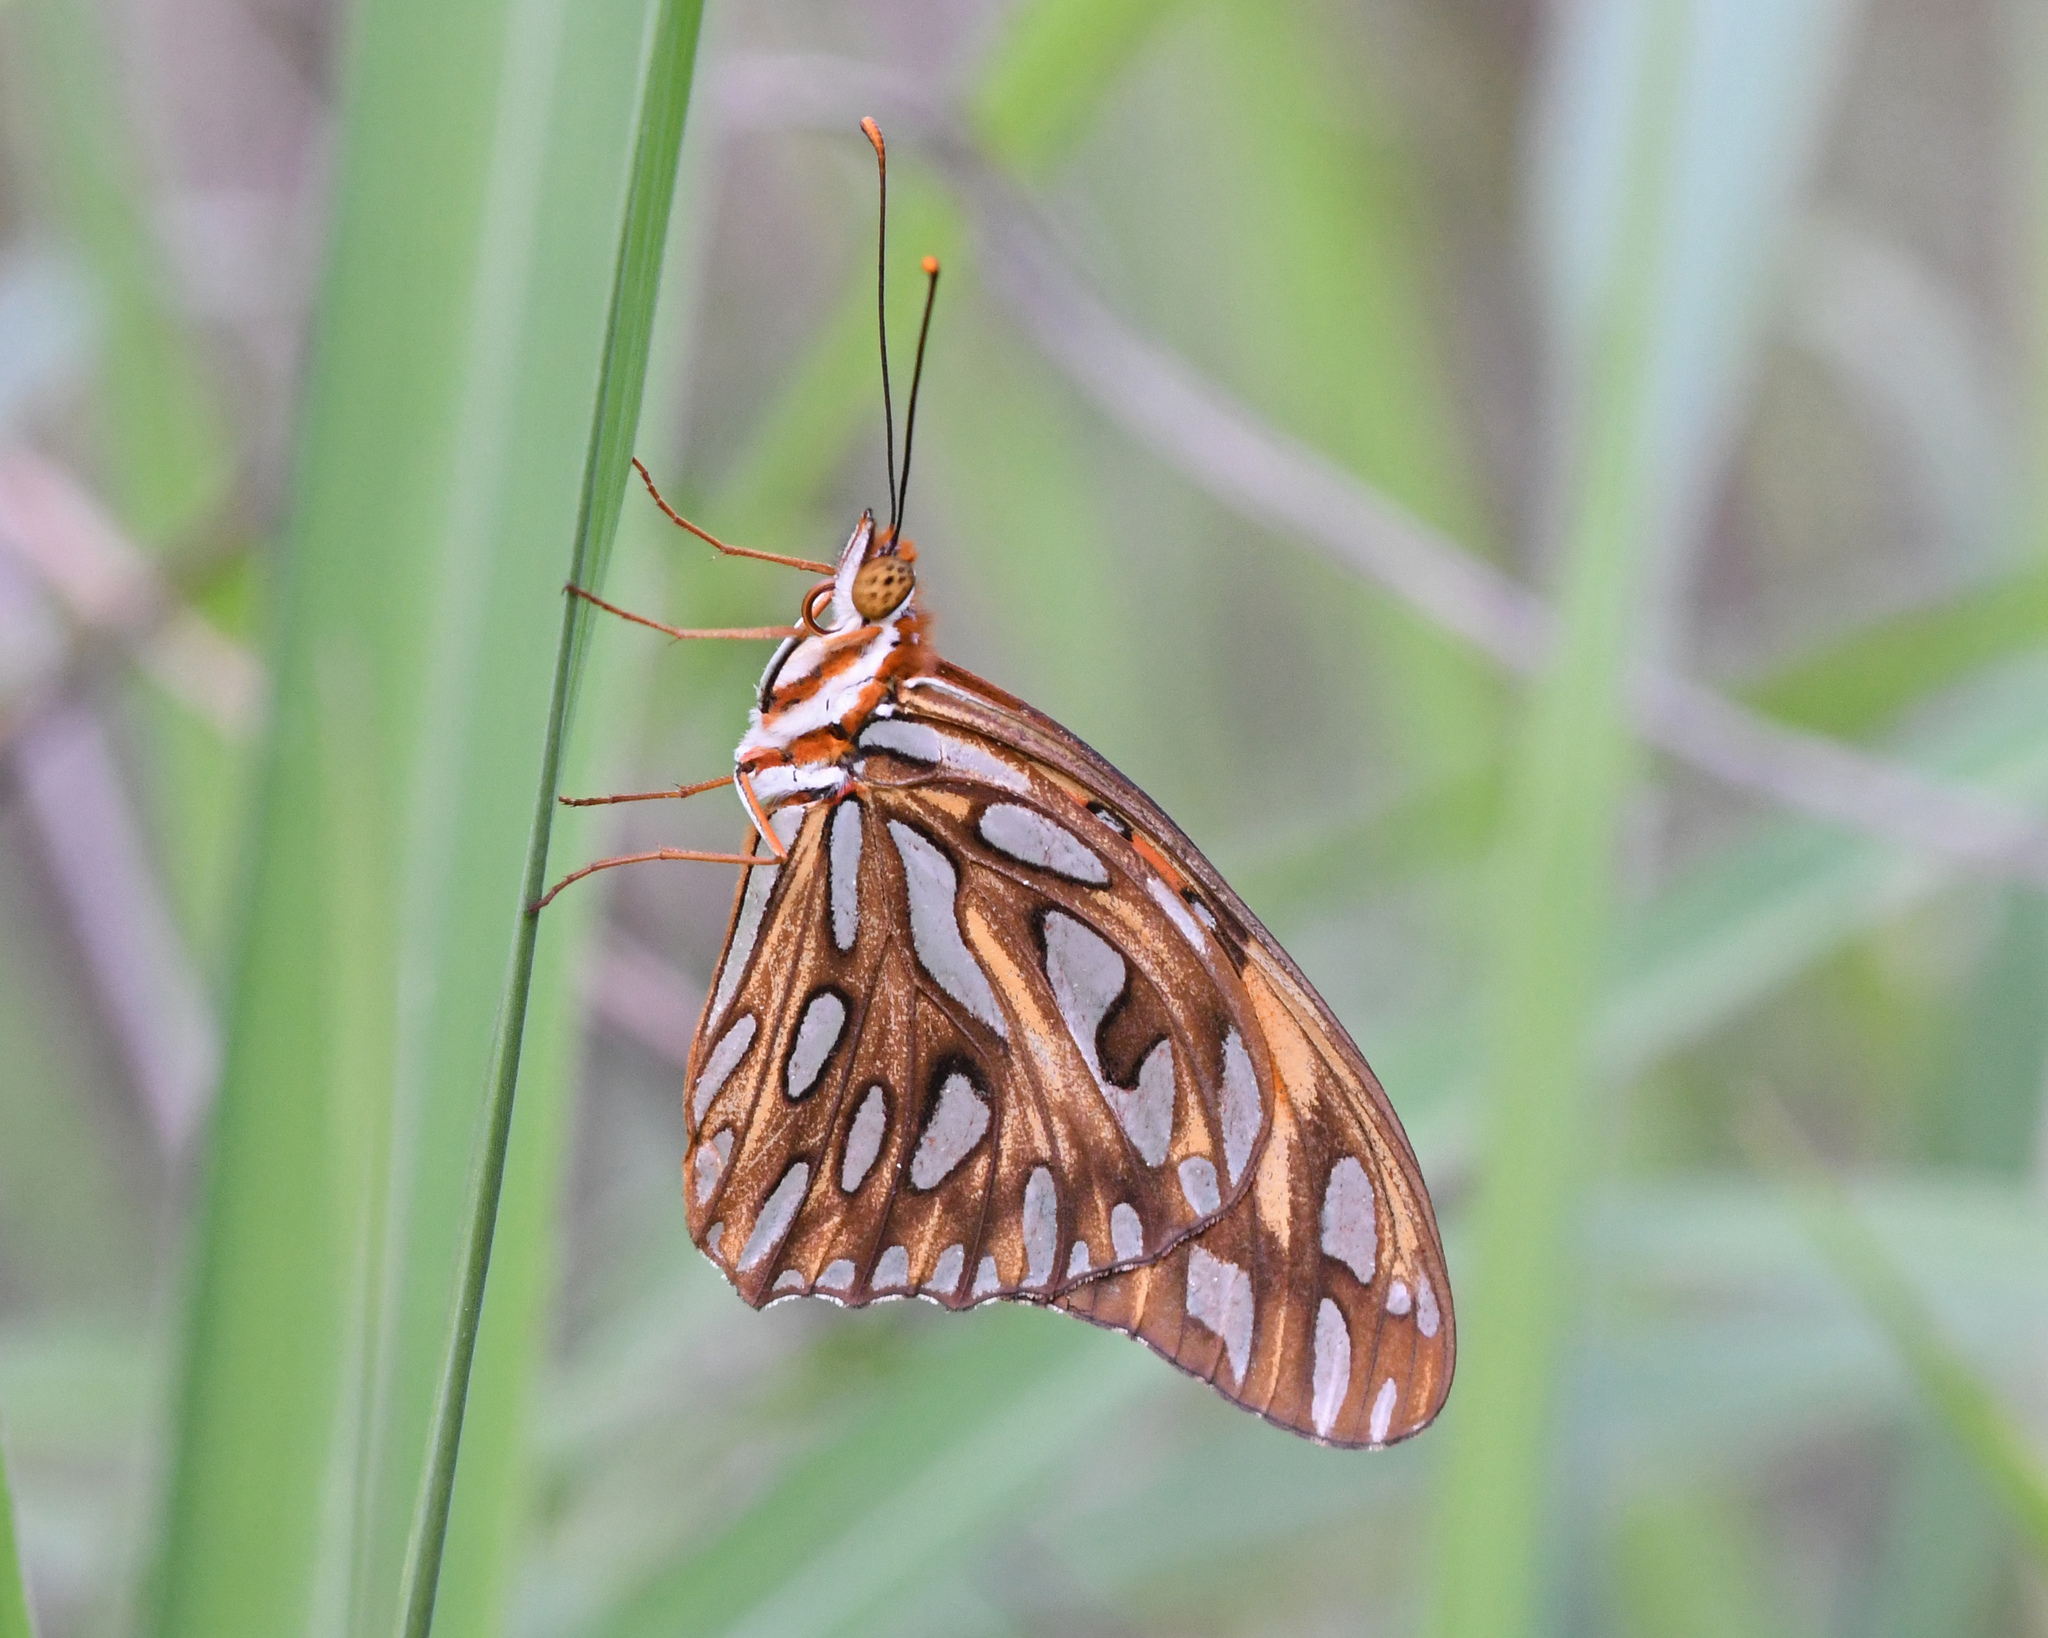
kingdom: Animalia
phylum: Arthropoda
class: Insecta
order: Lepidoptera
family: Nymphalidae
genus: Dione
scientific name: Dione vanillae
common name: Gulf fritillary
